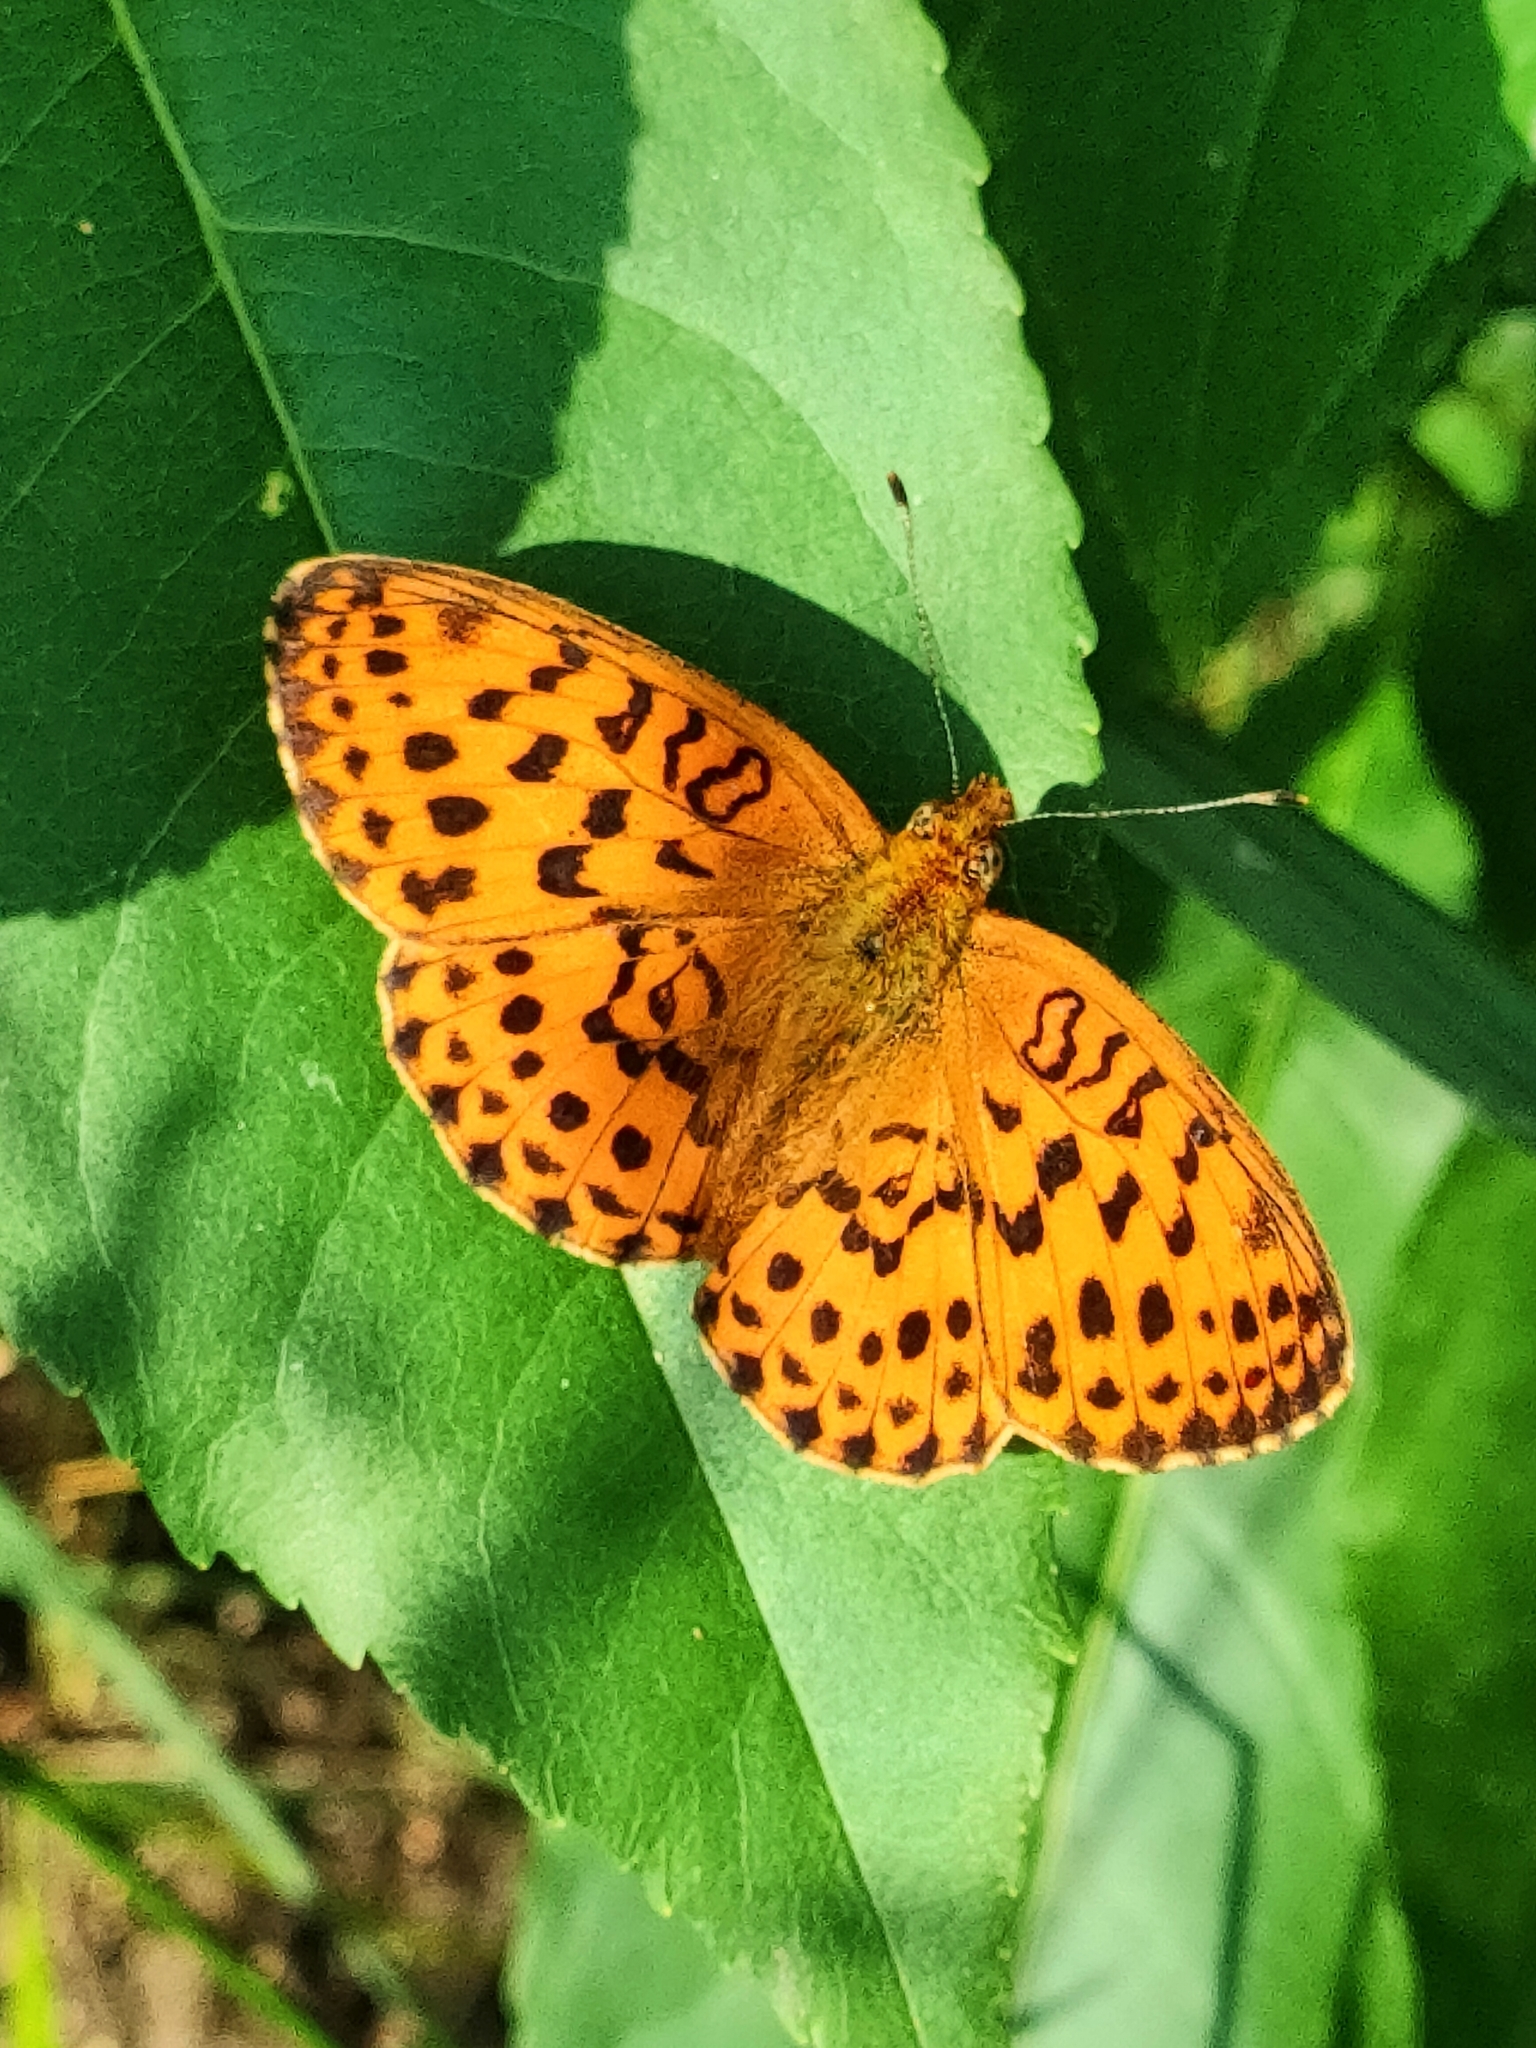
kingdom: Animalia
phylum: Arthropoda
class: Insecta
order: Lepidoptera
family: Nymphalidae
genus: Brenthis
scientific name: Brenthis daphne
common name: Marbled fritillary
